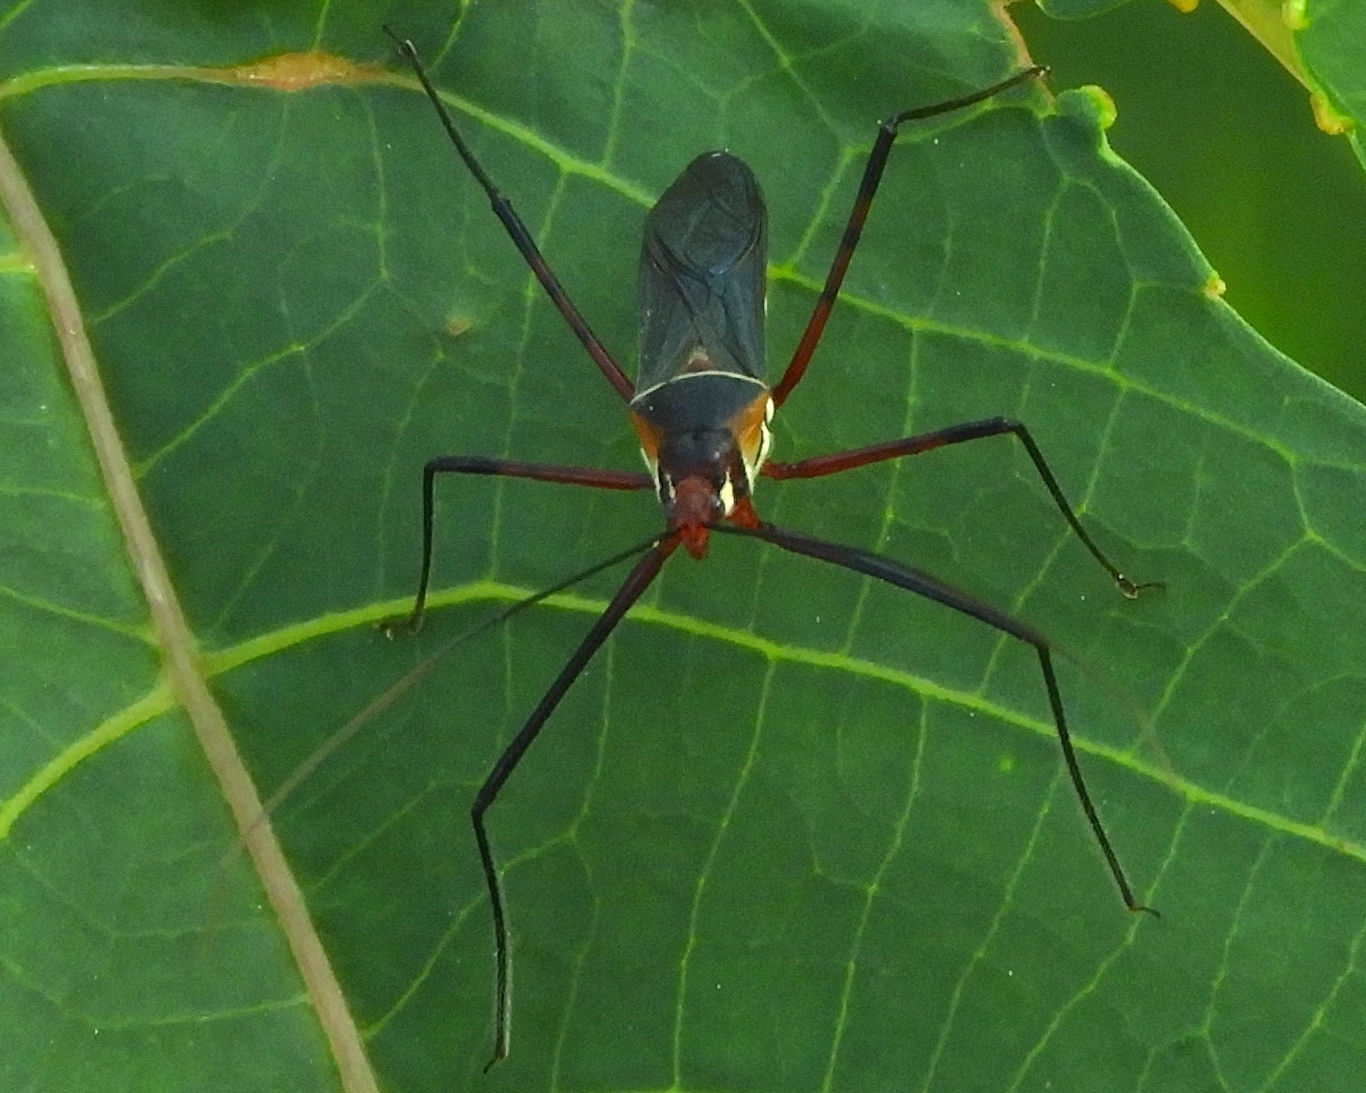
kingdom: Animalia
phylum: Arthropoda
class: Insecta
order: Hemiptera
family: Reduviidae
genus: Zelus
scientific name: Zelus
